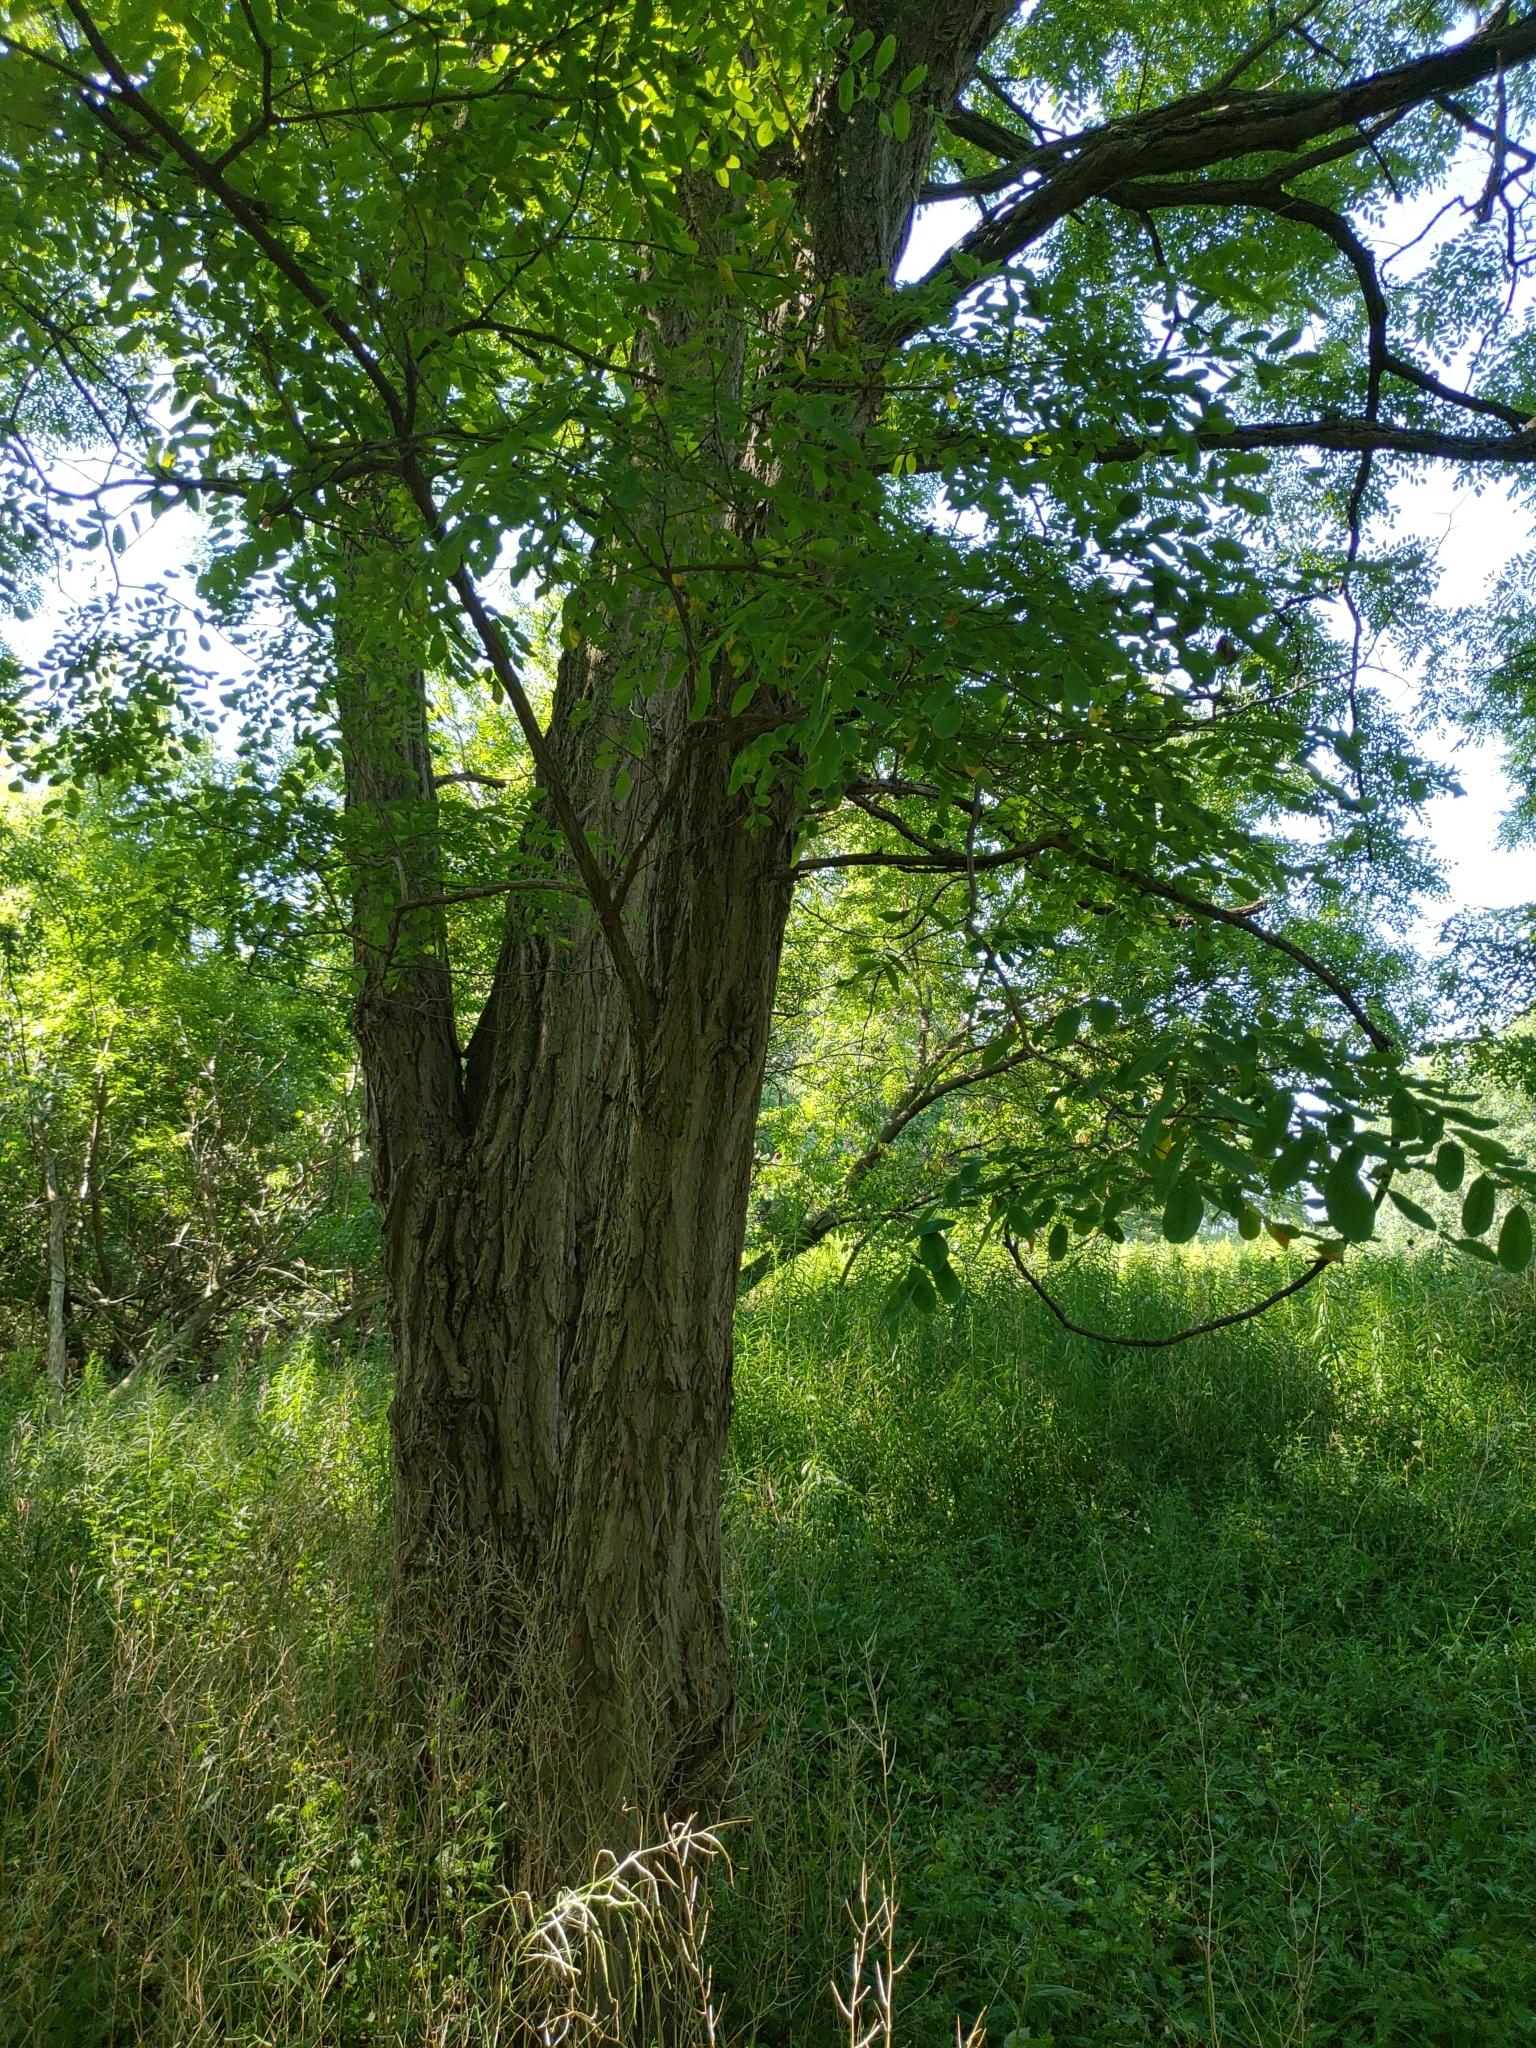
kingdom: Plantae
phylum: Tracheophyta
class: Magnoliopsida
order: Fabales
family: Fabaceae
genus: Robinia
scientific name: Robinia pseudoacacia
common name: Black locust
